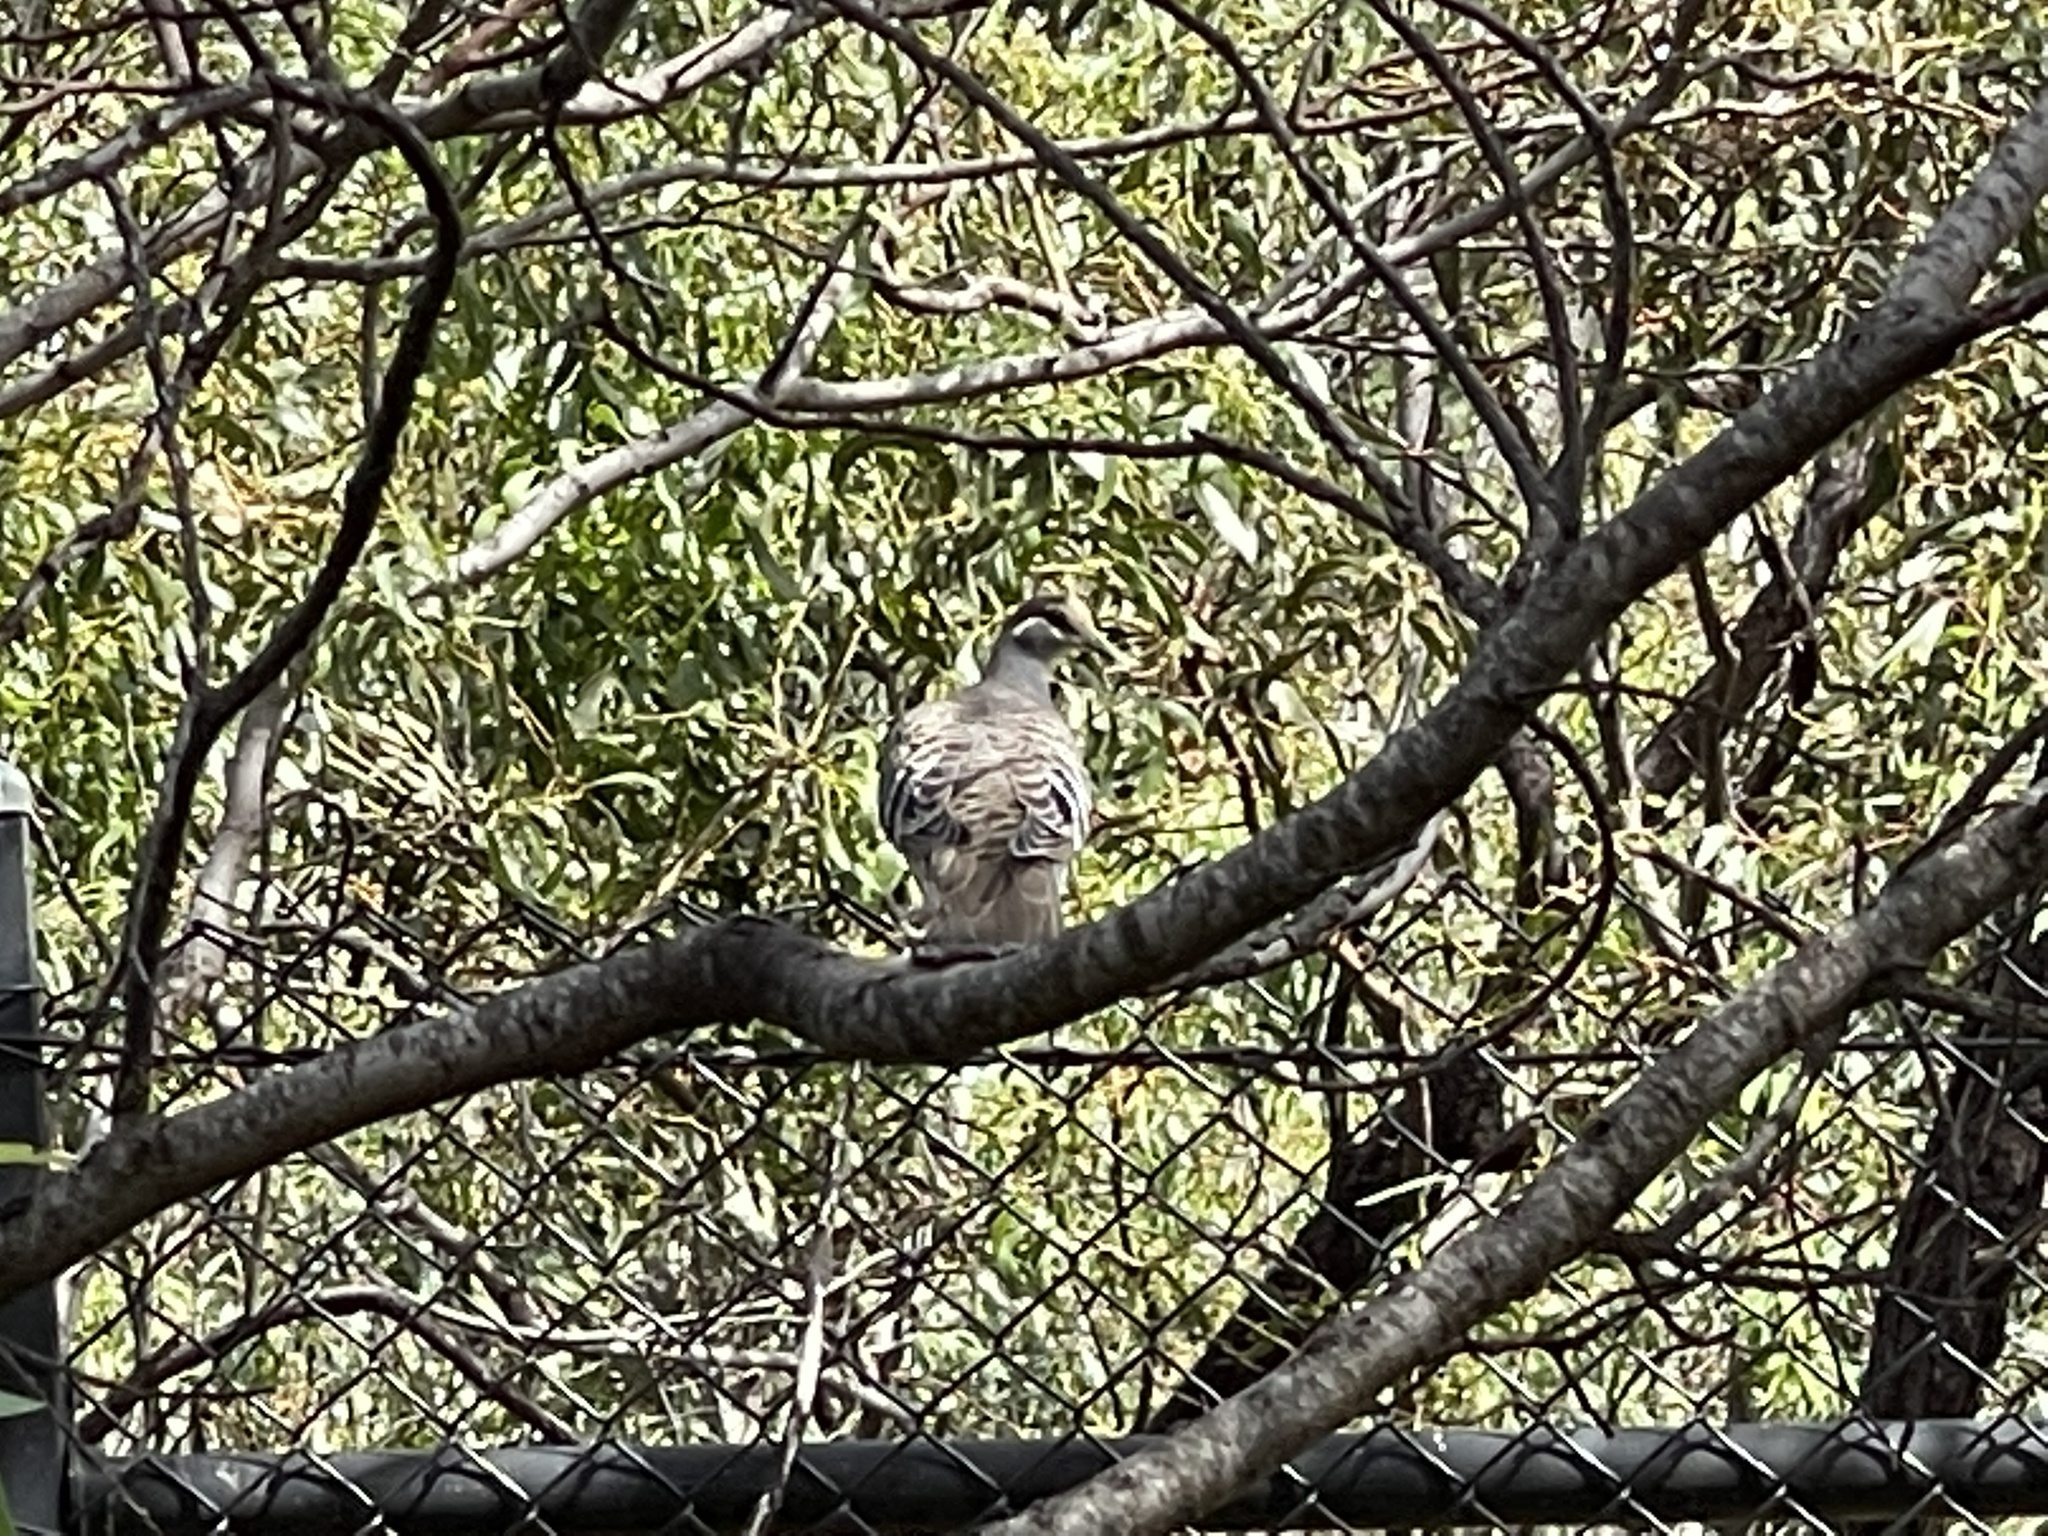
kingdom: Animalia
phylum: Chordata
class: Aves
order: Columbiformes
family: Columbidae
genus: Phaps
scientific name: Phaps chalcoptera
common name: Common bronzewing
